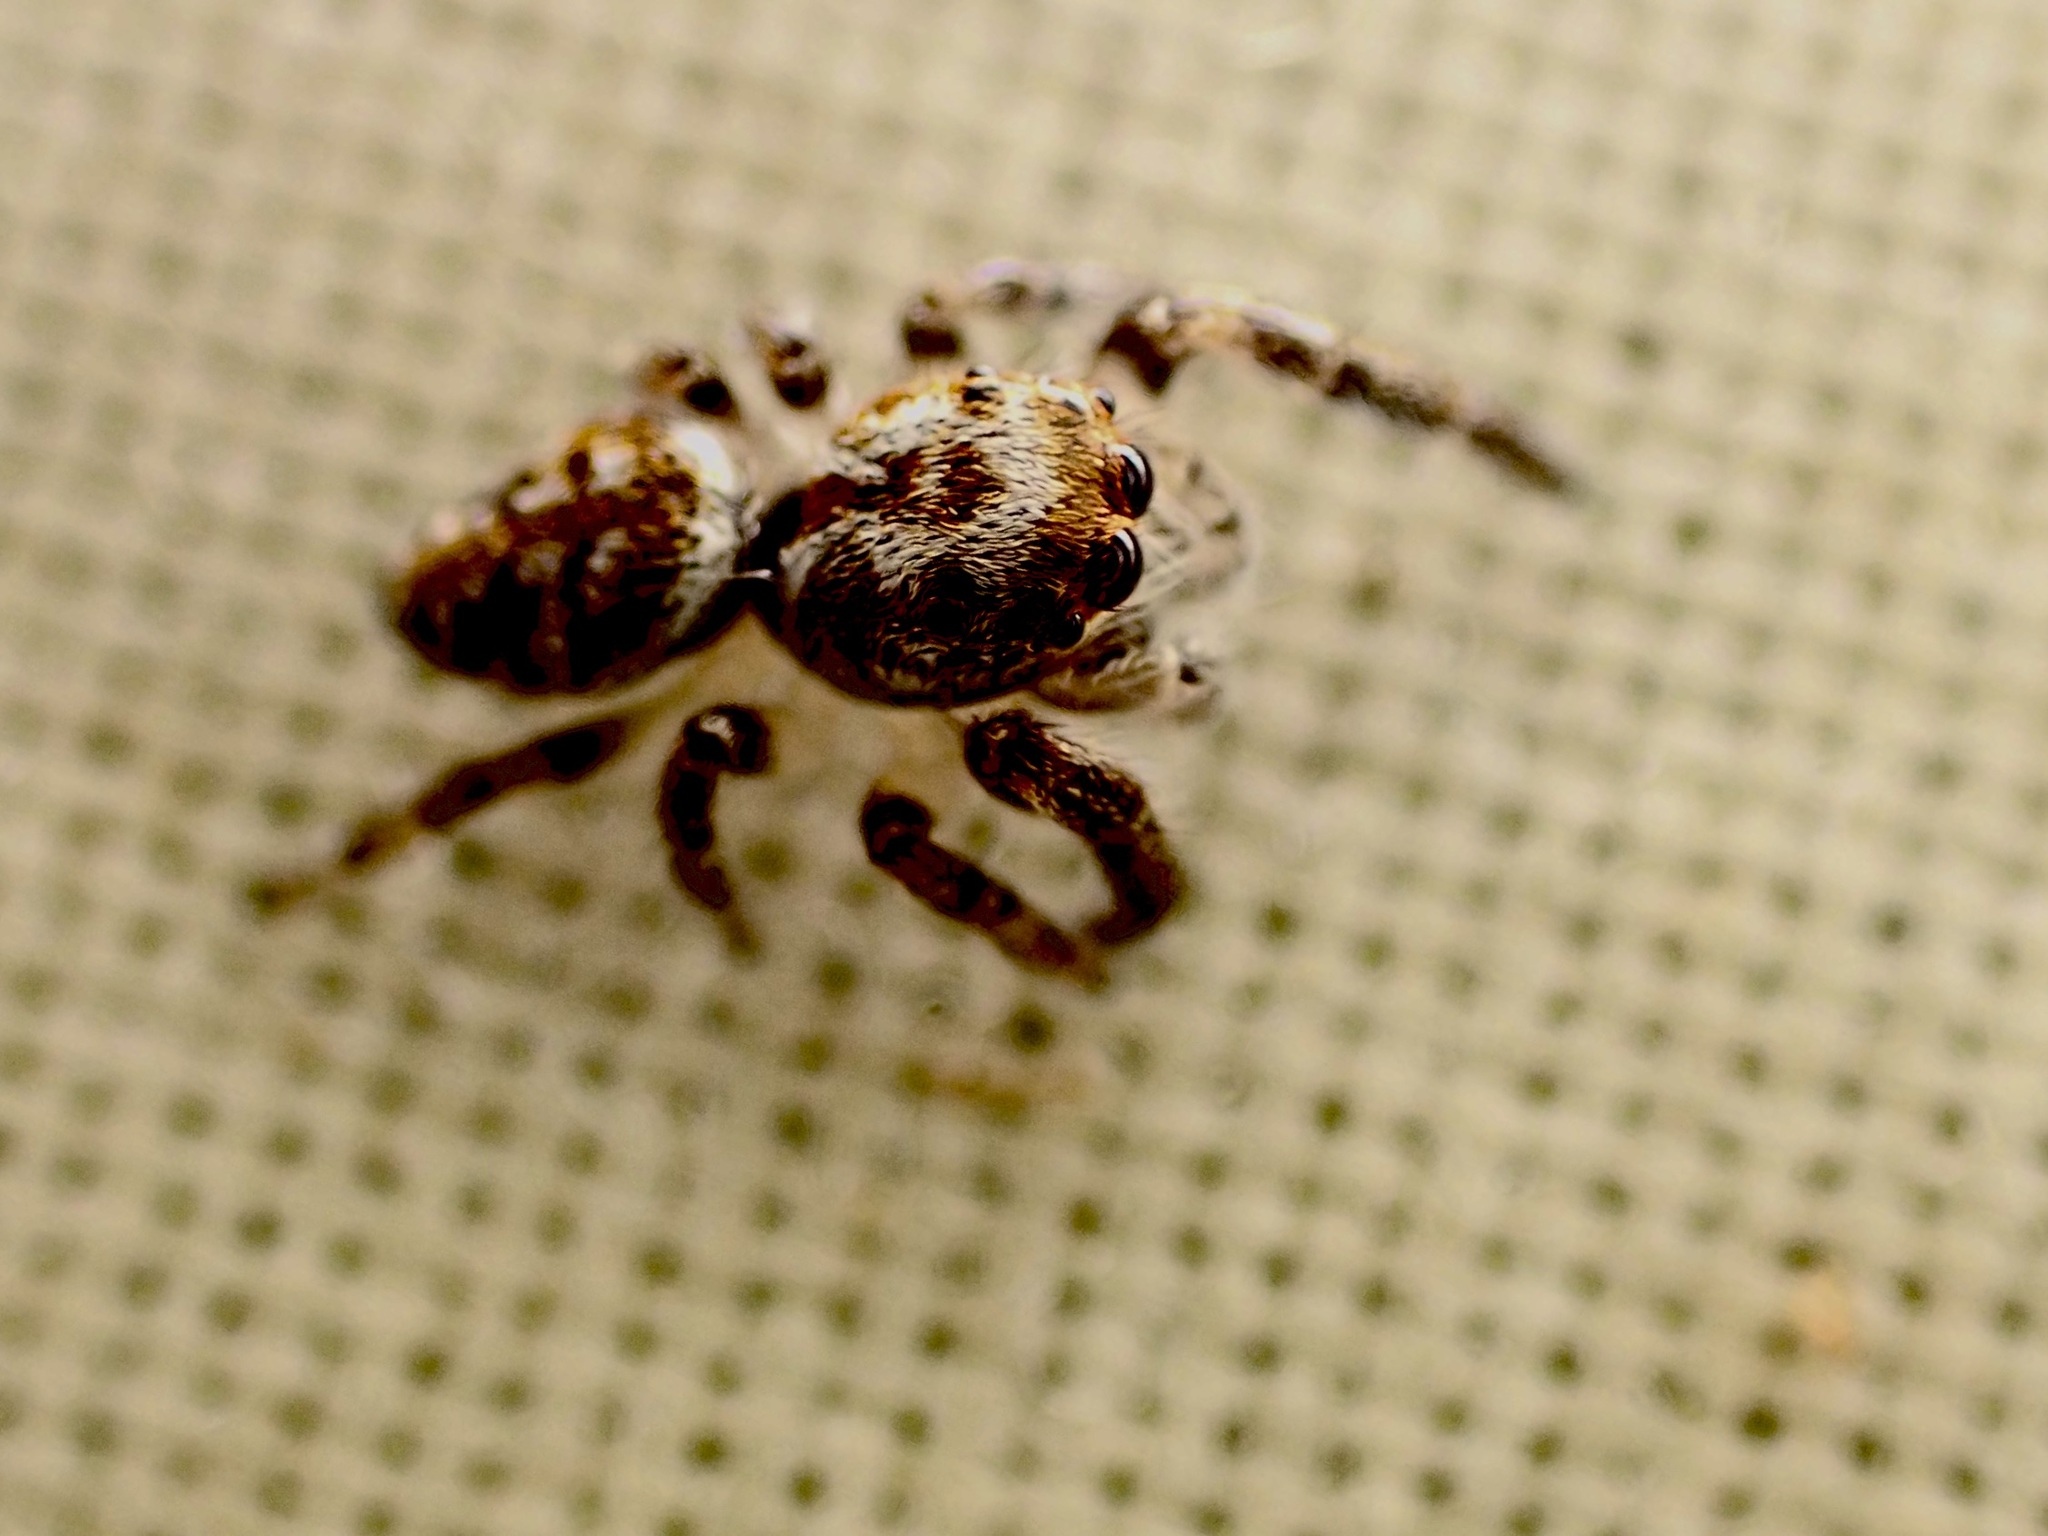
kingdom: Animalia
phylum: Arthropoda
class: Arachnida
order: Araneae
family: Salticidae
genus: Opisthoncus
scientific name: Opisthoncus polyphemus
